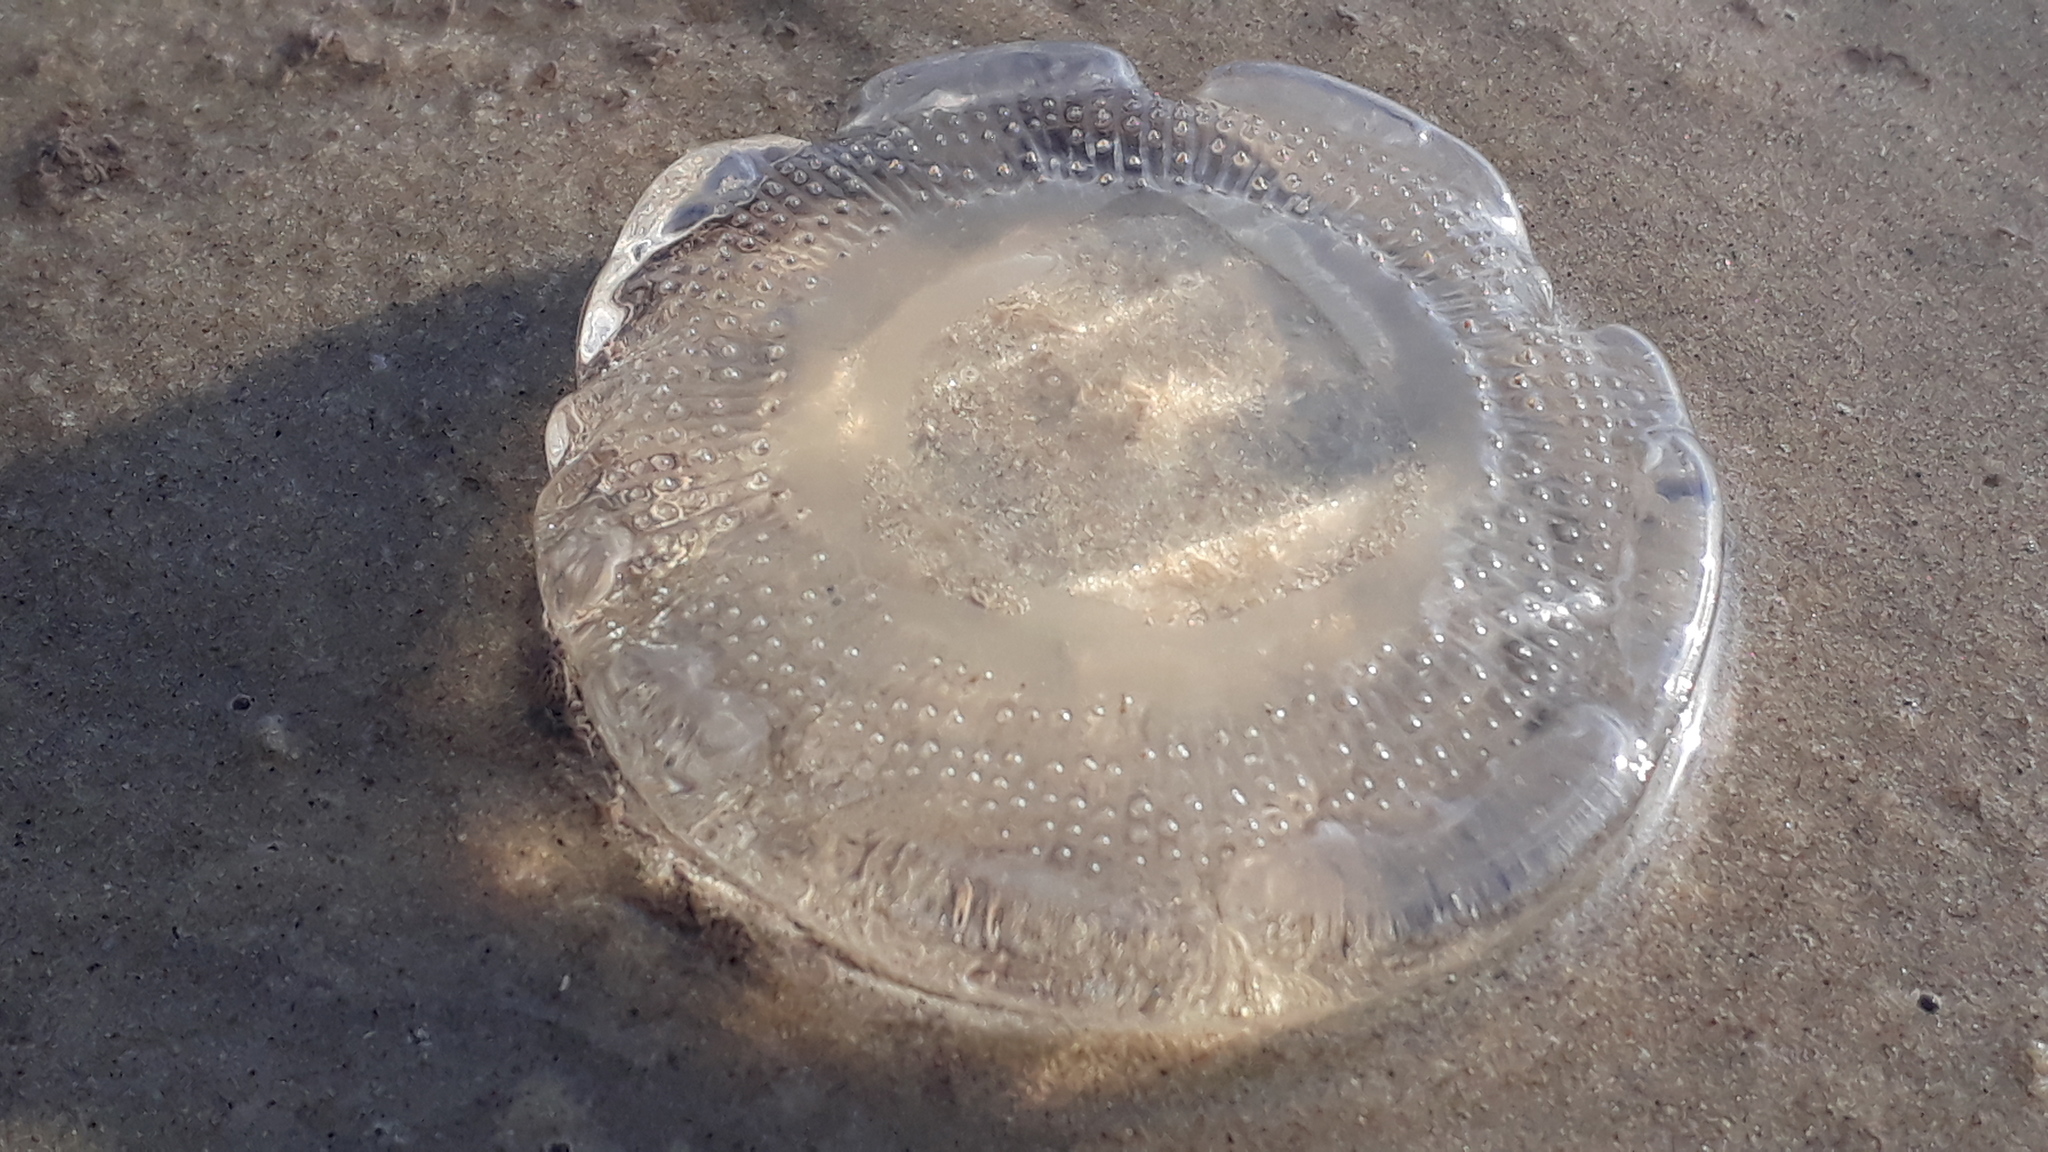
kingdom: Animalia
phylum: Cnidaria
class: Hydrozoa
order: Leptothecata
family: Aequoreidae
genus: Rhacostoma
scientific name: Rhacostoma atlanticum
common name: Lined water jelly
